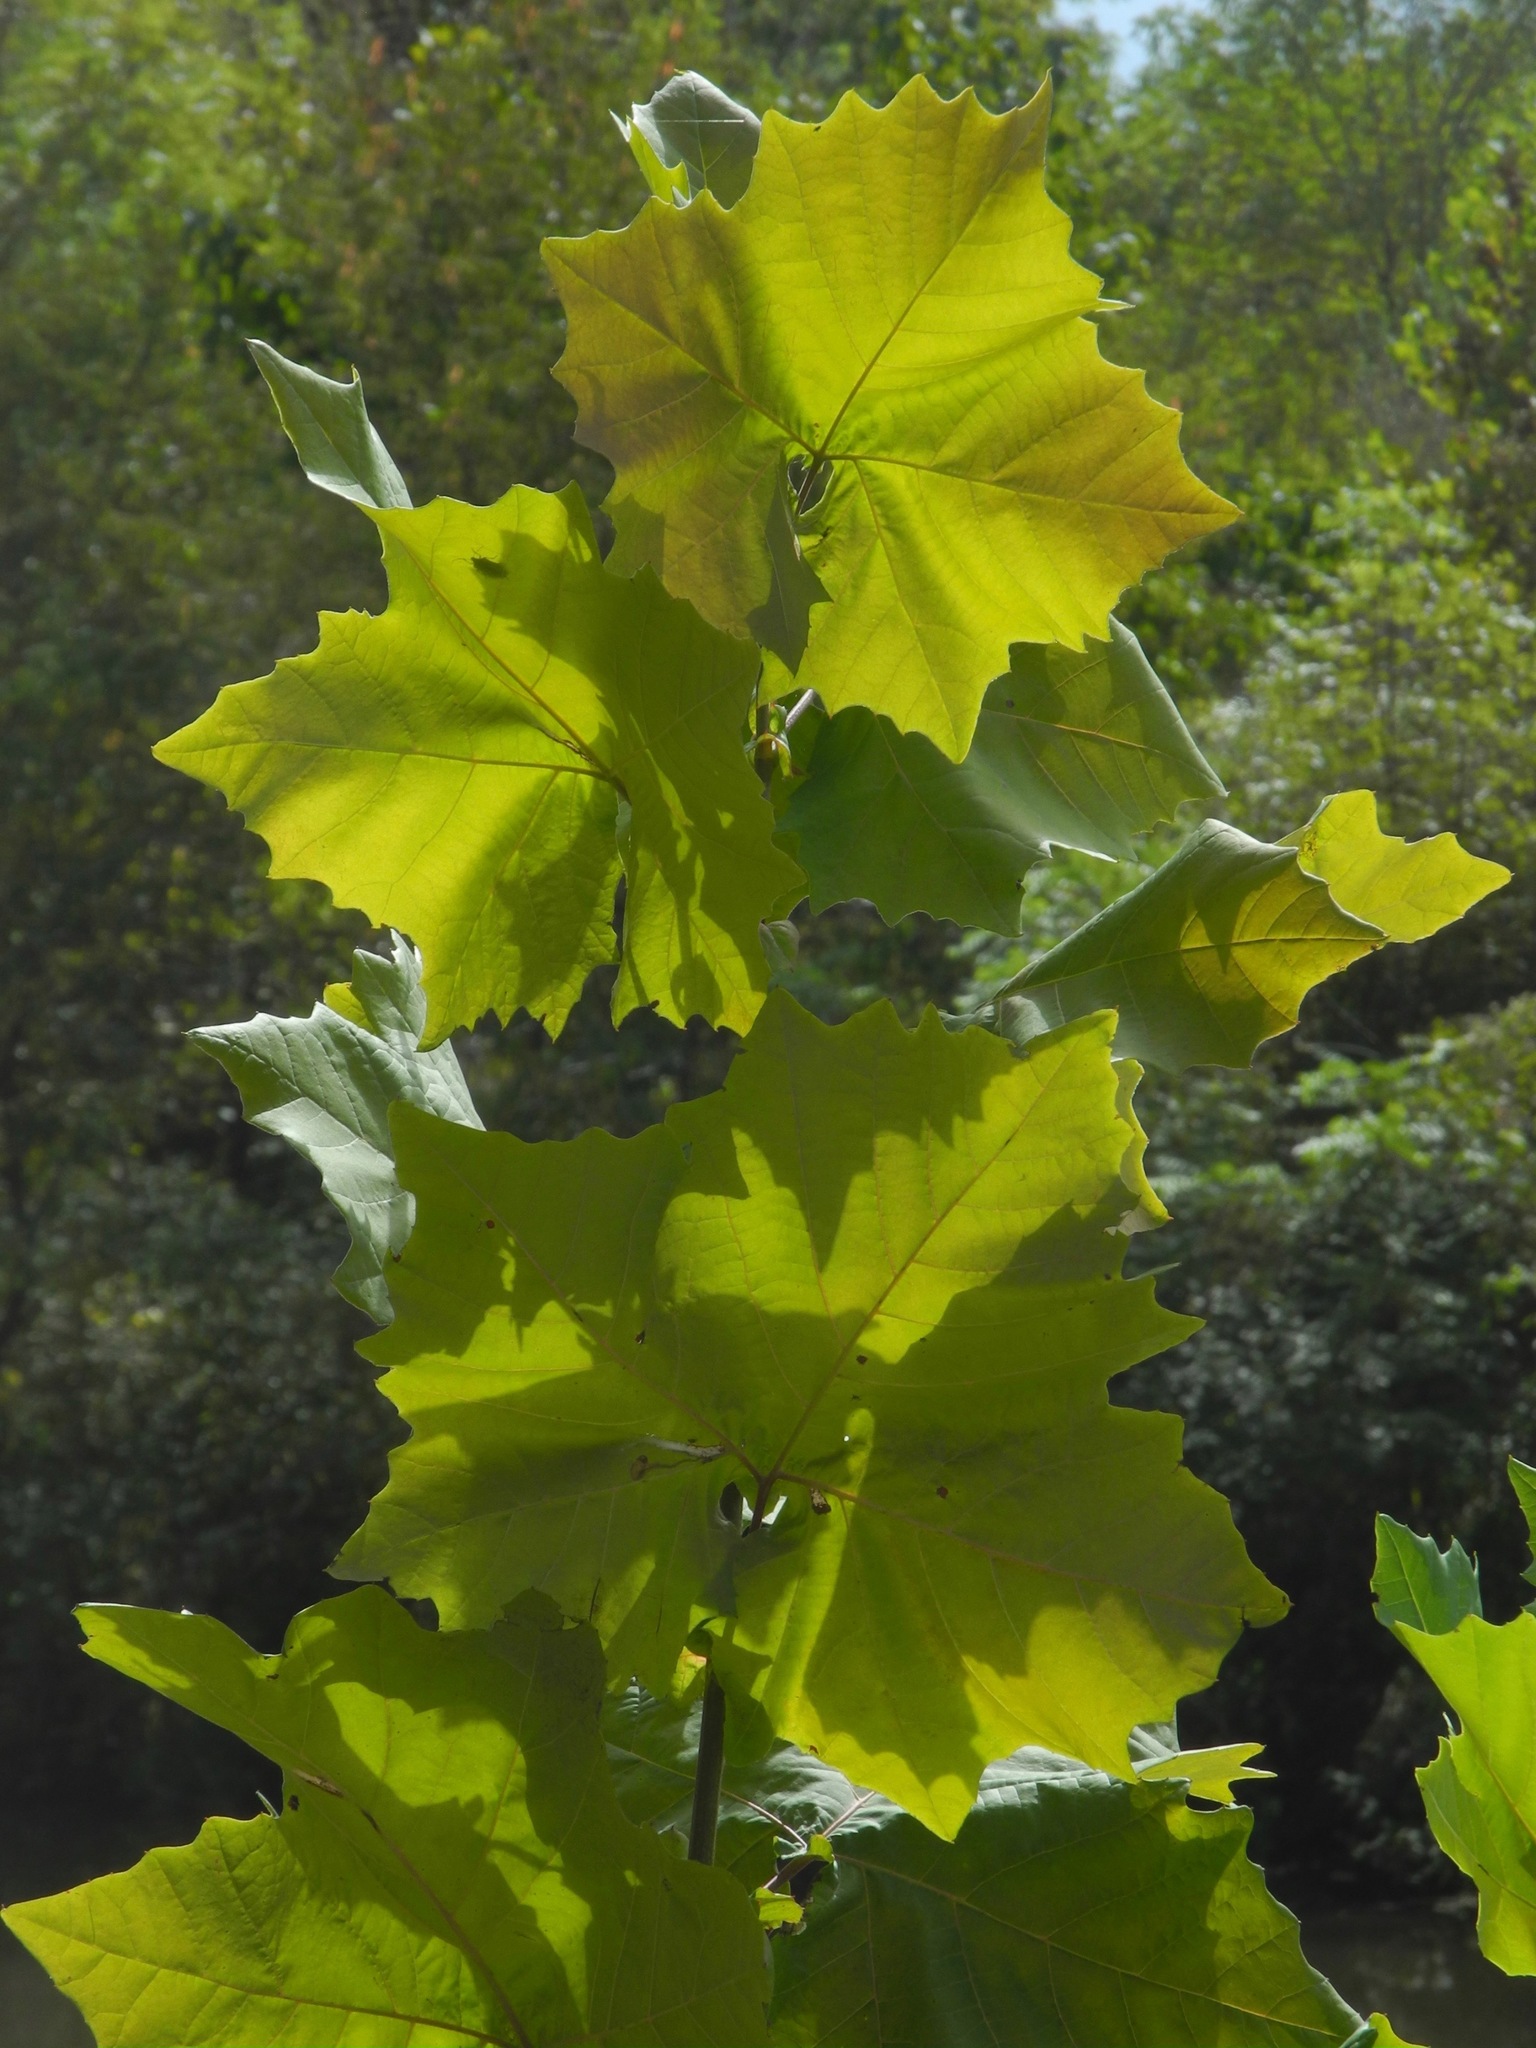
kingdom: Plantae
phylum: Tracheophyta
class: Magnoliopsida
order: Proteales
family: Platanaceae
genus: Platanus
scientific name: Platanus occidentalis
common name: American sycamore
